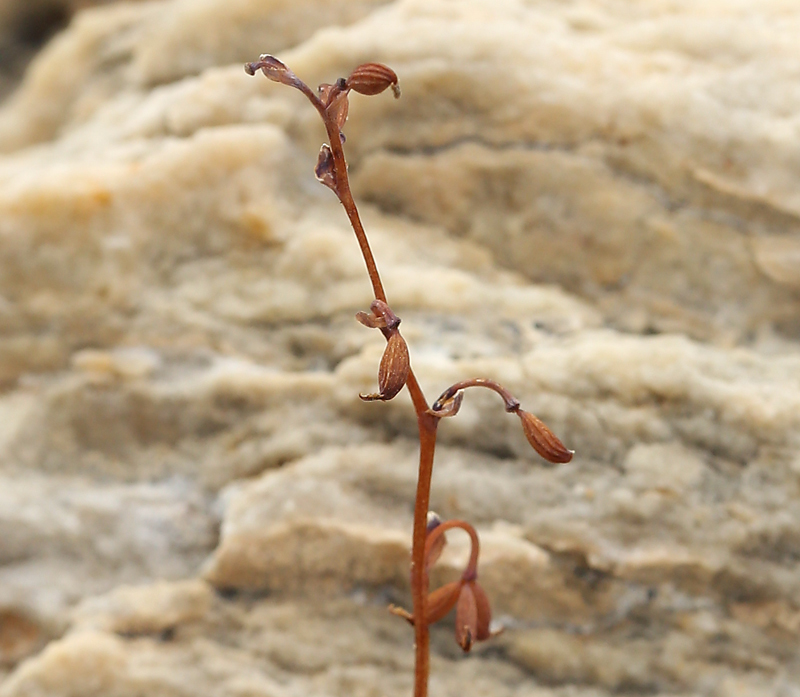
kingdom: Plantae
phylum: Tracheophyta
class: Magnoliopsida
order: Ranunculales
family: Ranunculaceae
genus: Thalictrum
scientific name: Thalictrum alpinum
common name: Alpine meadow-rue
